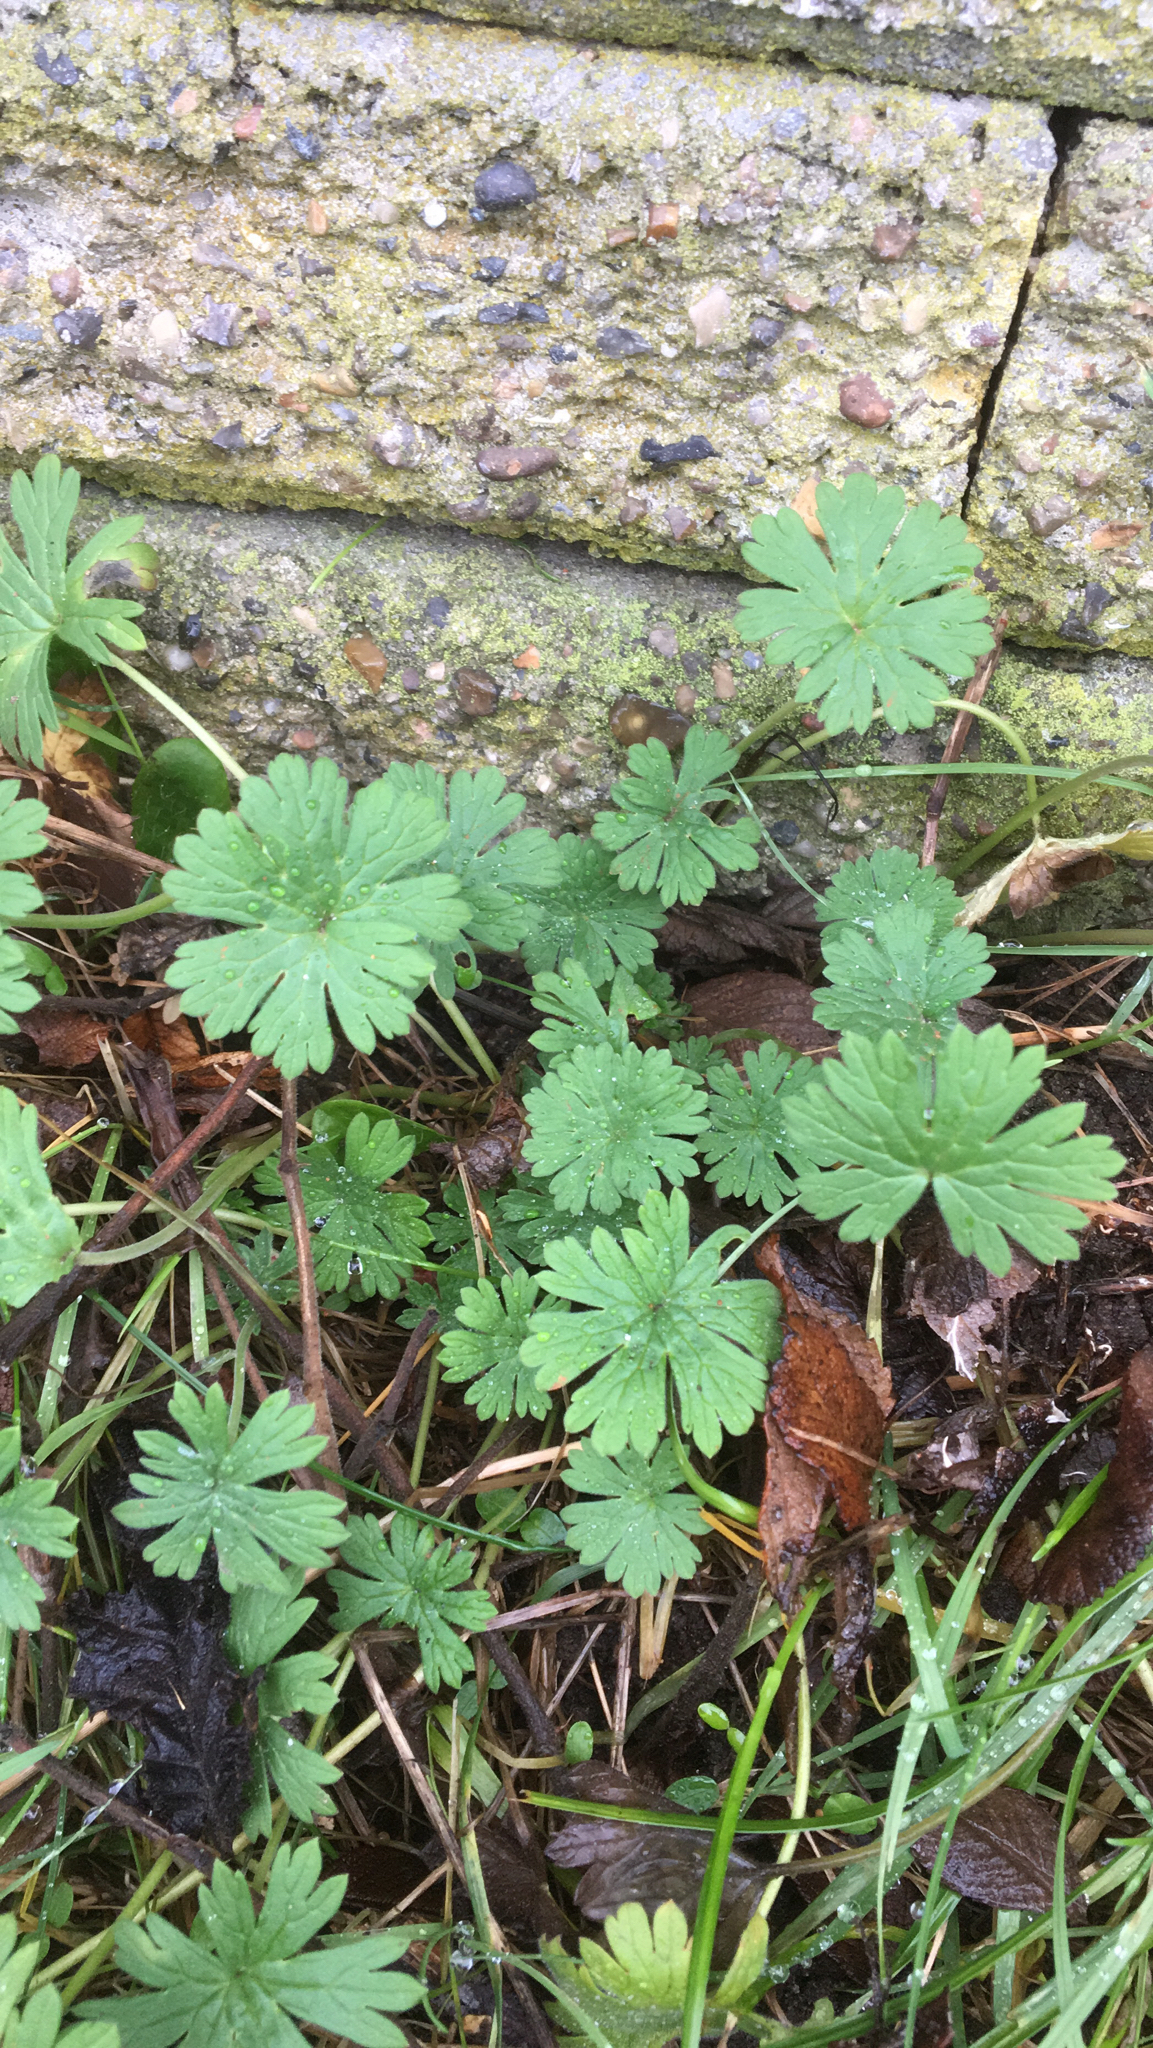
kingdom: Plantae
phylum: Tracheophyta
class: Magnoliopsida
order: Geraniales
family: Geraniaceae
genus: Geranium
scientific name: Geranium pusillum
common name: Small geranium
